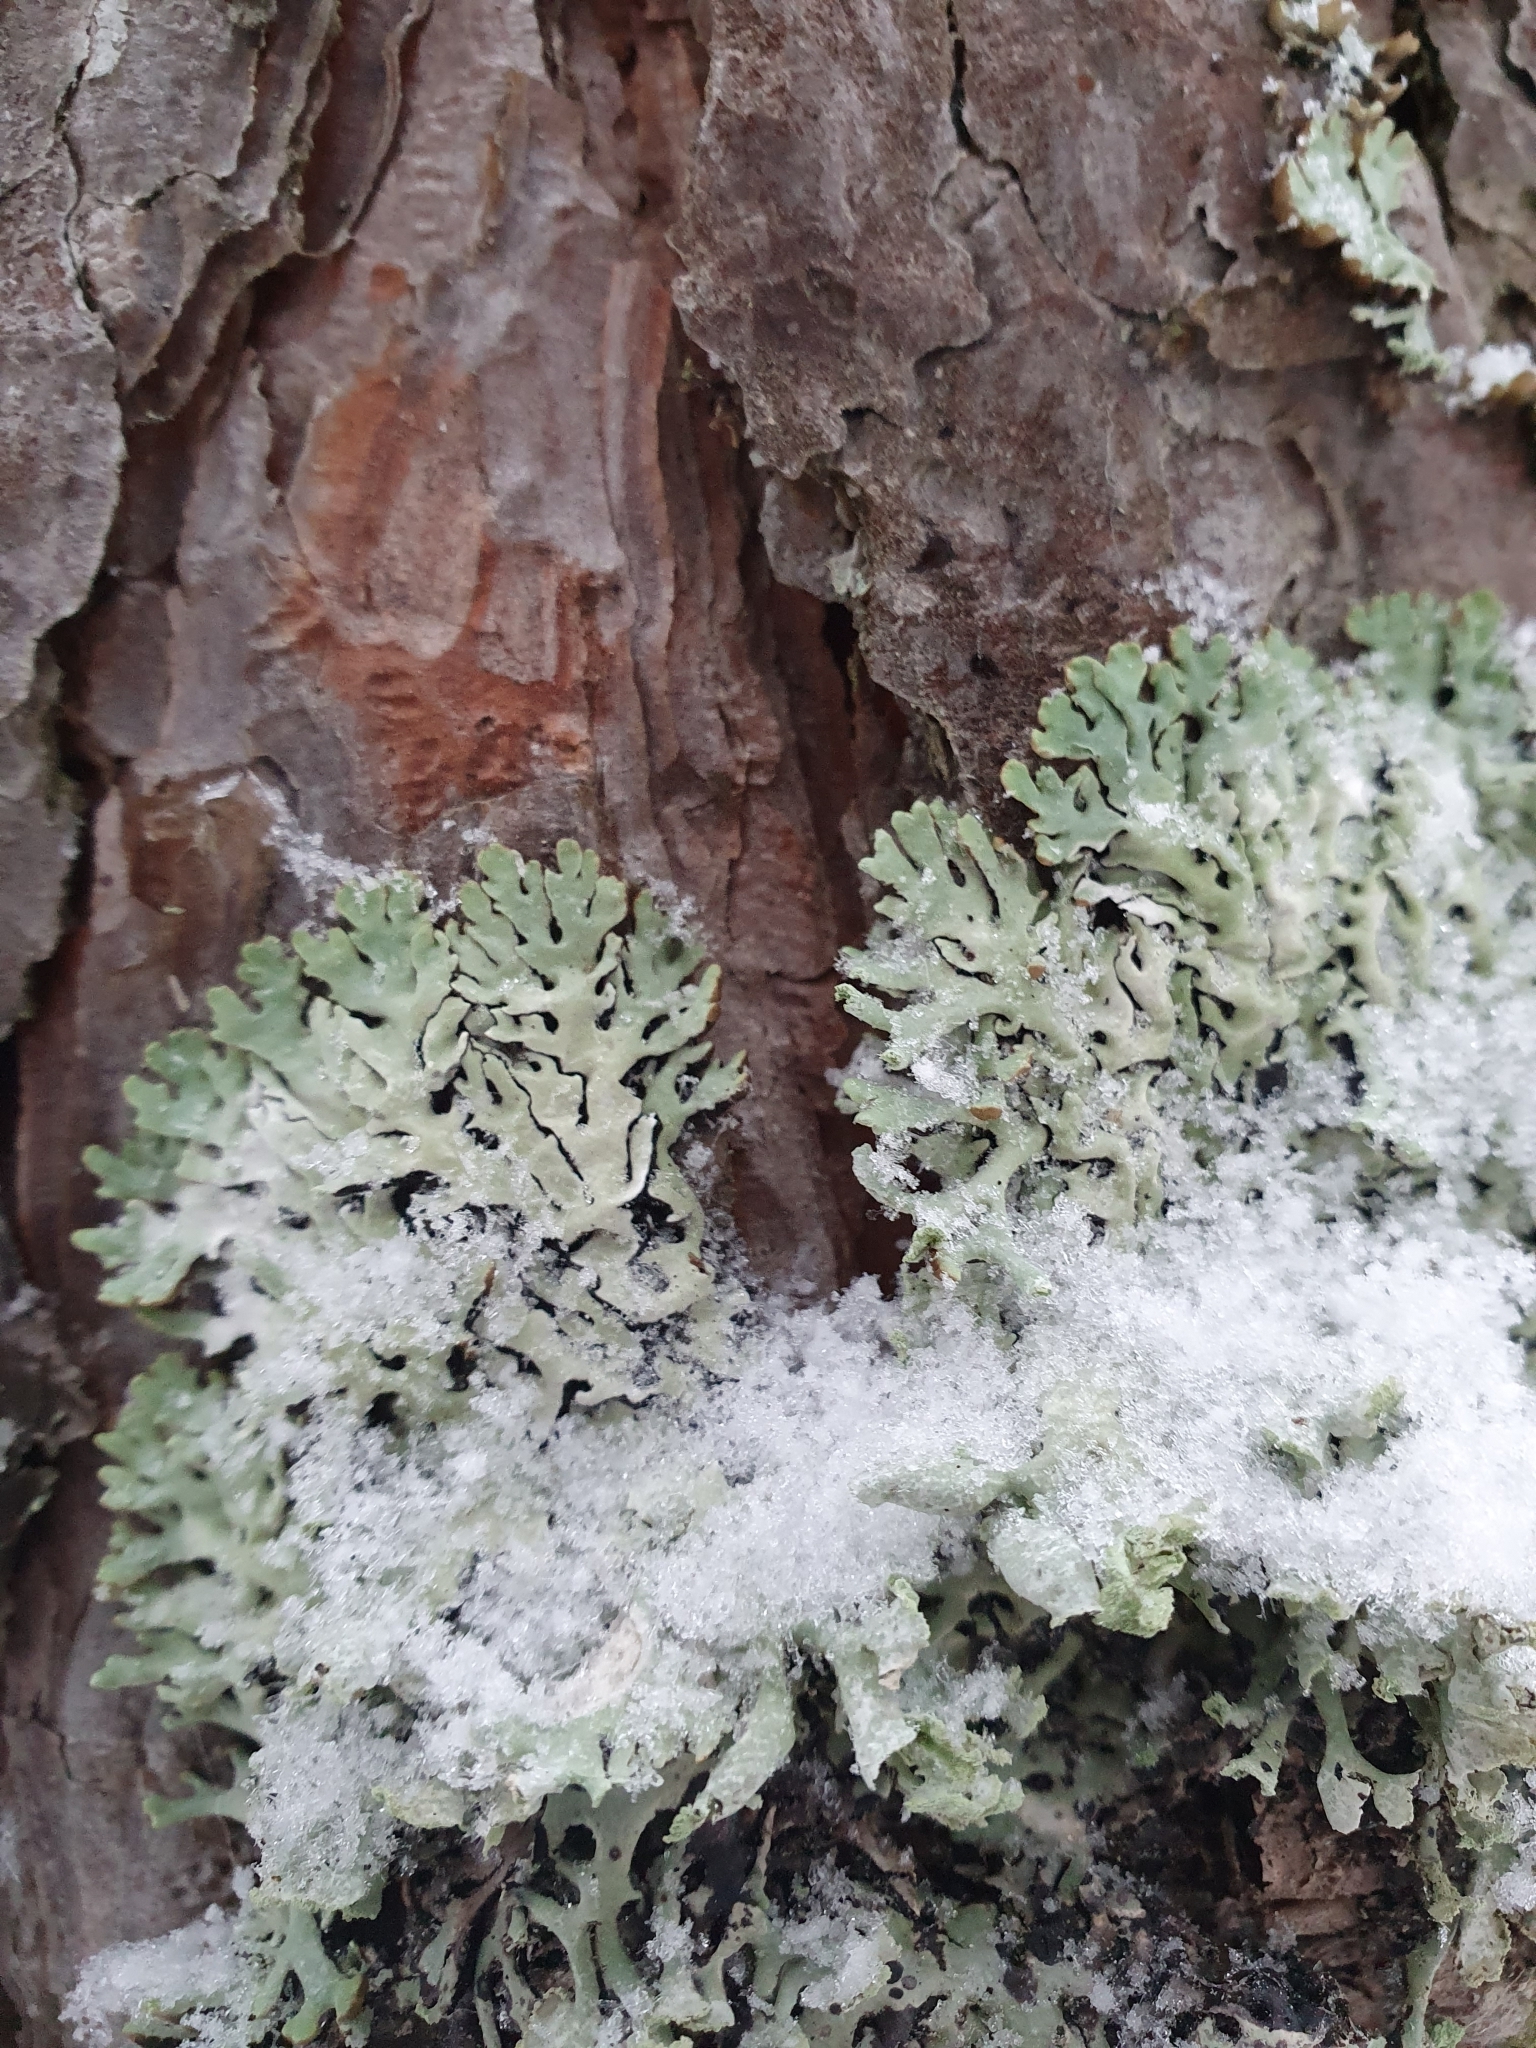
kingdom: Fungi
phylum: Ascomycota
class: Lecanoromycetes
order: Lecanorales
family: Parmeliaceae
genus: Hypogymnia
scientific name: Hypogymnia physodes
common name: Dark crottle
